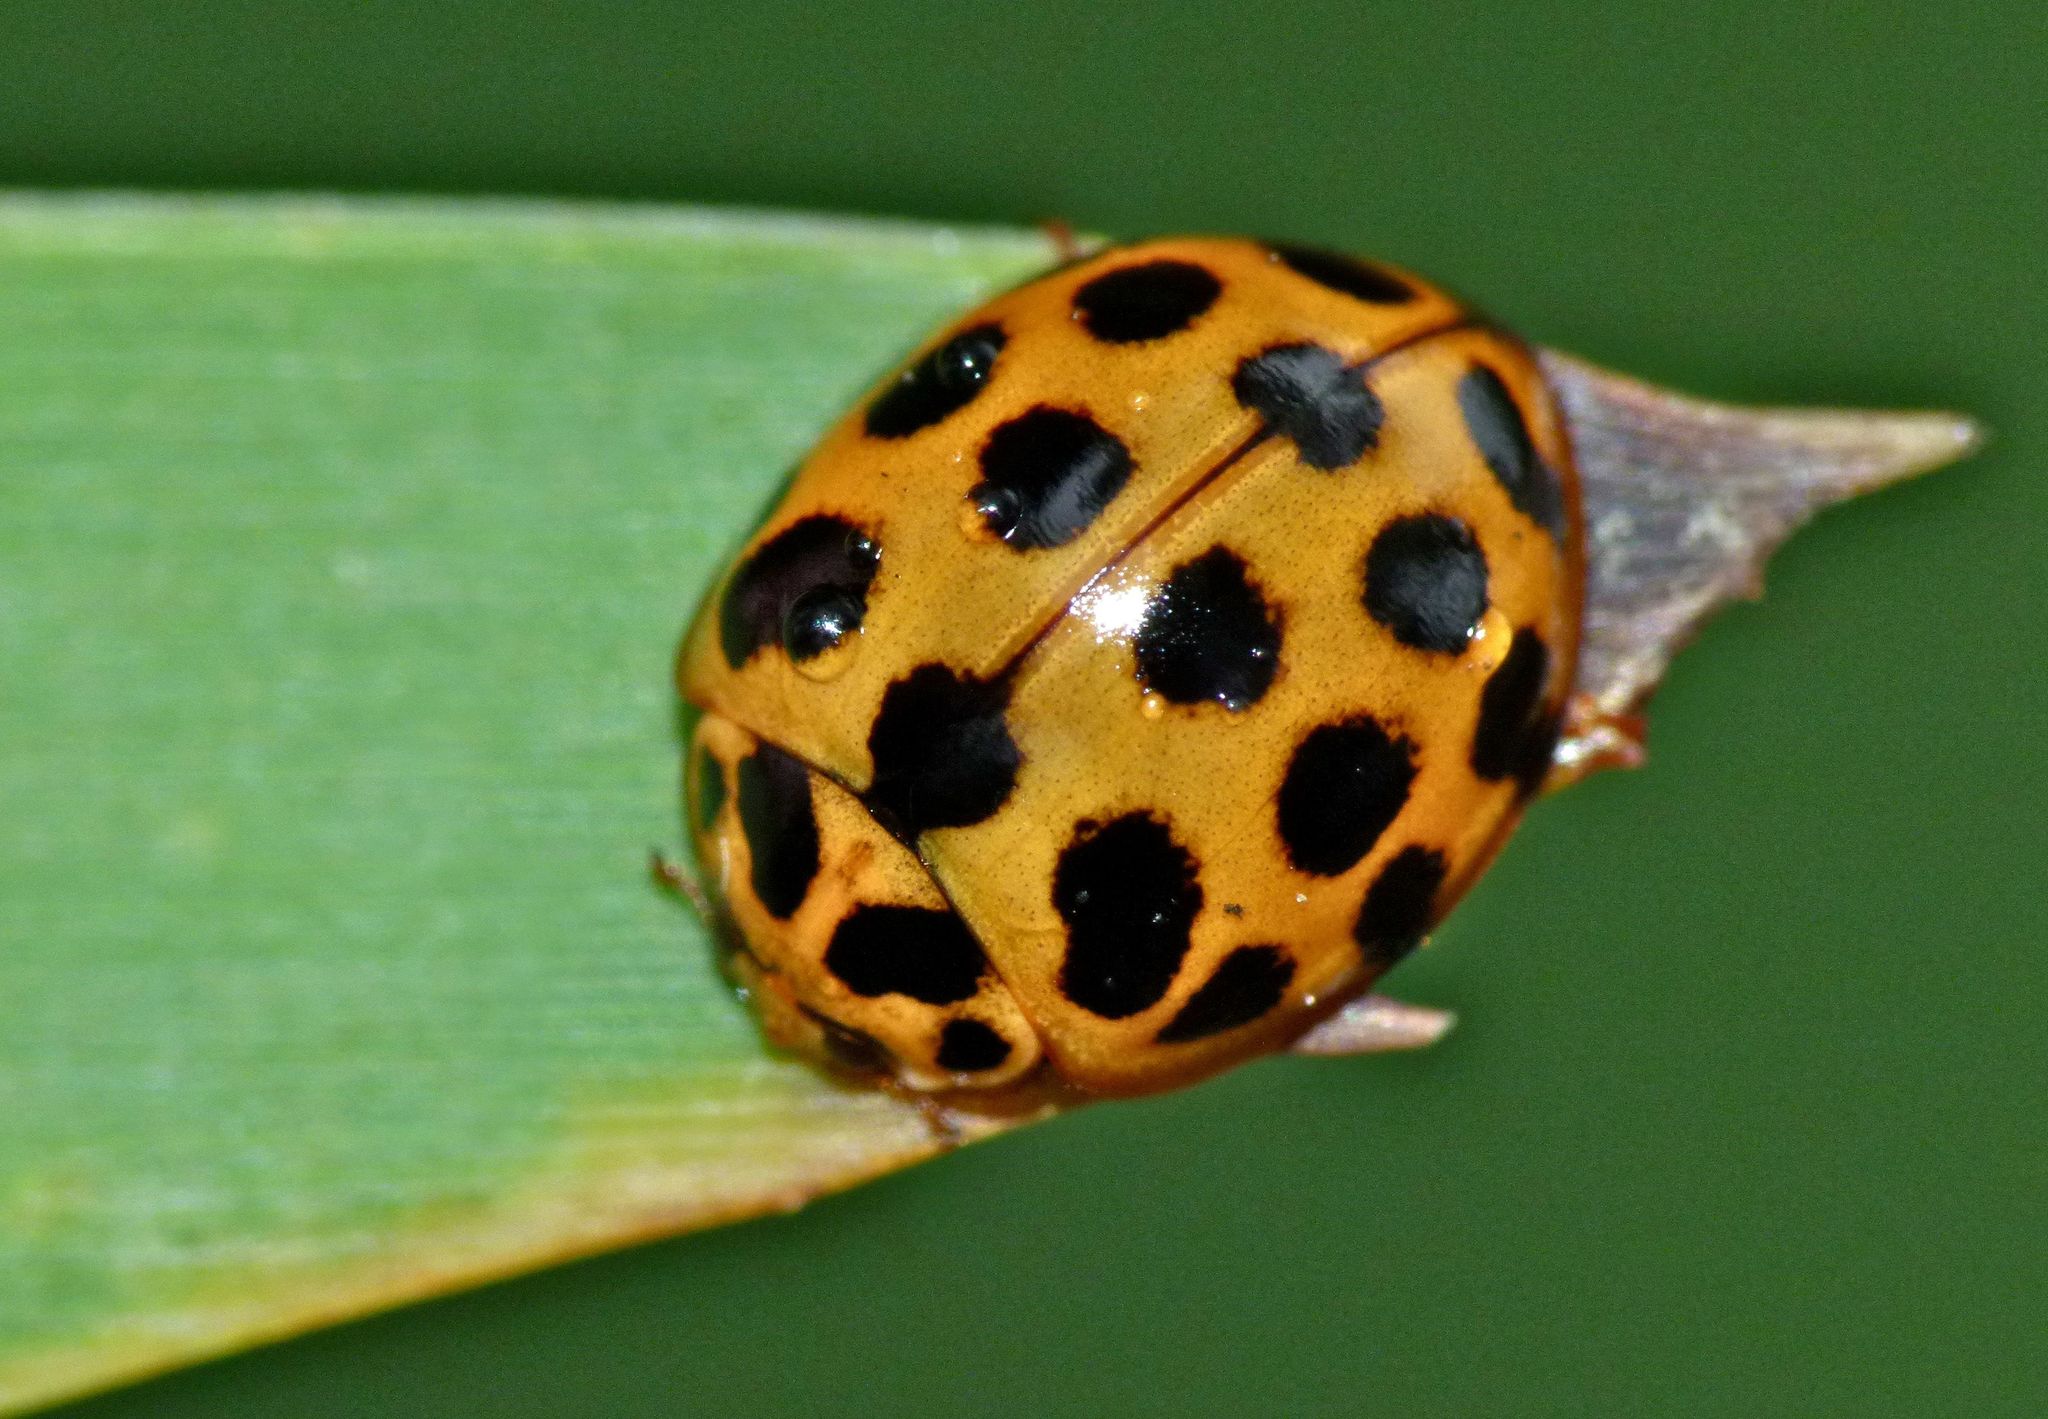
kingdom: Animalia
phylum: Arthropoda
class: Insecta
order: Coleoptera
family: Coccinellidae
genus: Harmonia
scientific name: Harmonia conformis
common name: Common spotted ladybird beetle
